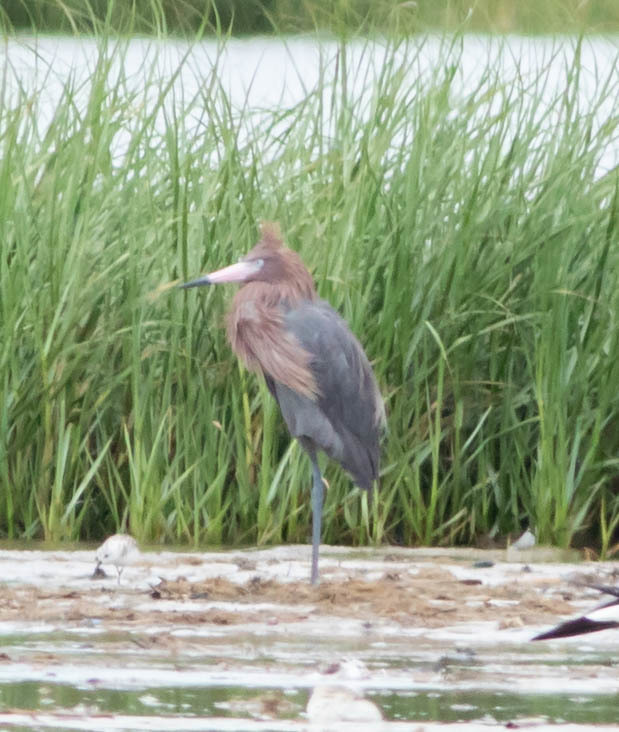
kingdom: Animalia
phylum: Chordata
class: Aves
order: Pelecaniformes
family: Ardeidae
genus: Egretta
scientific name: Egretta rufescens
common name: Reddish egret
